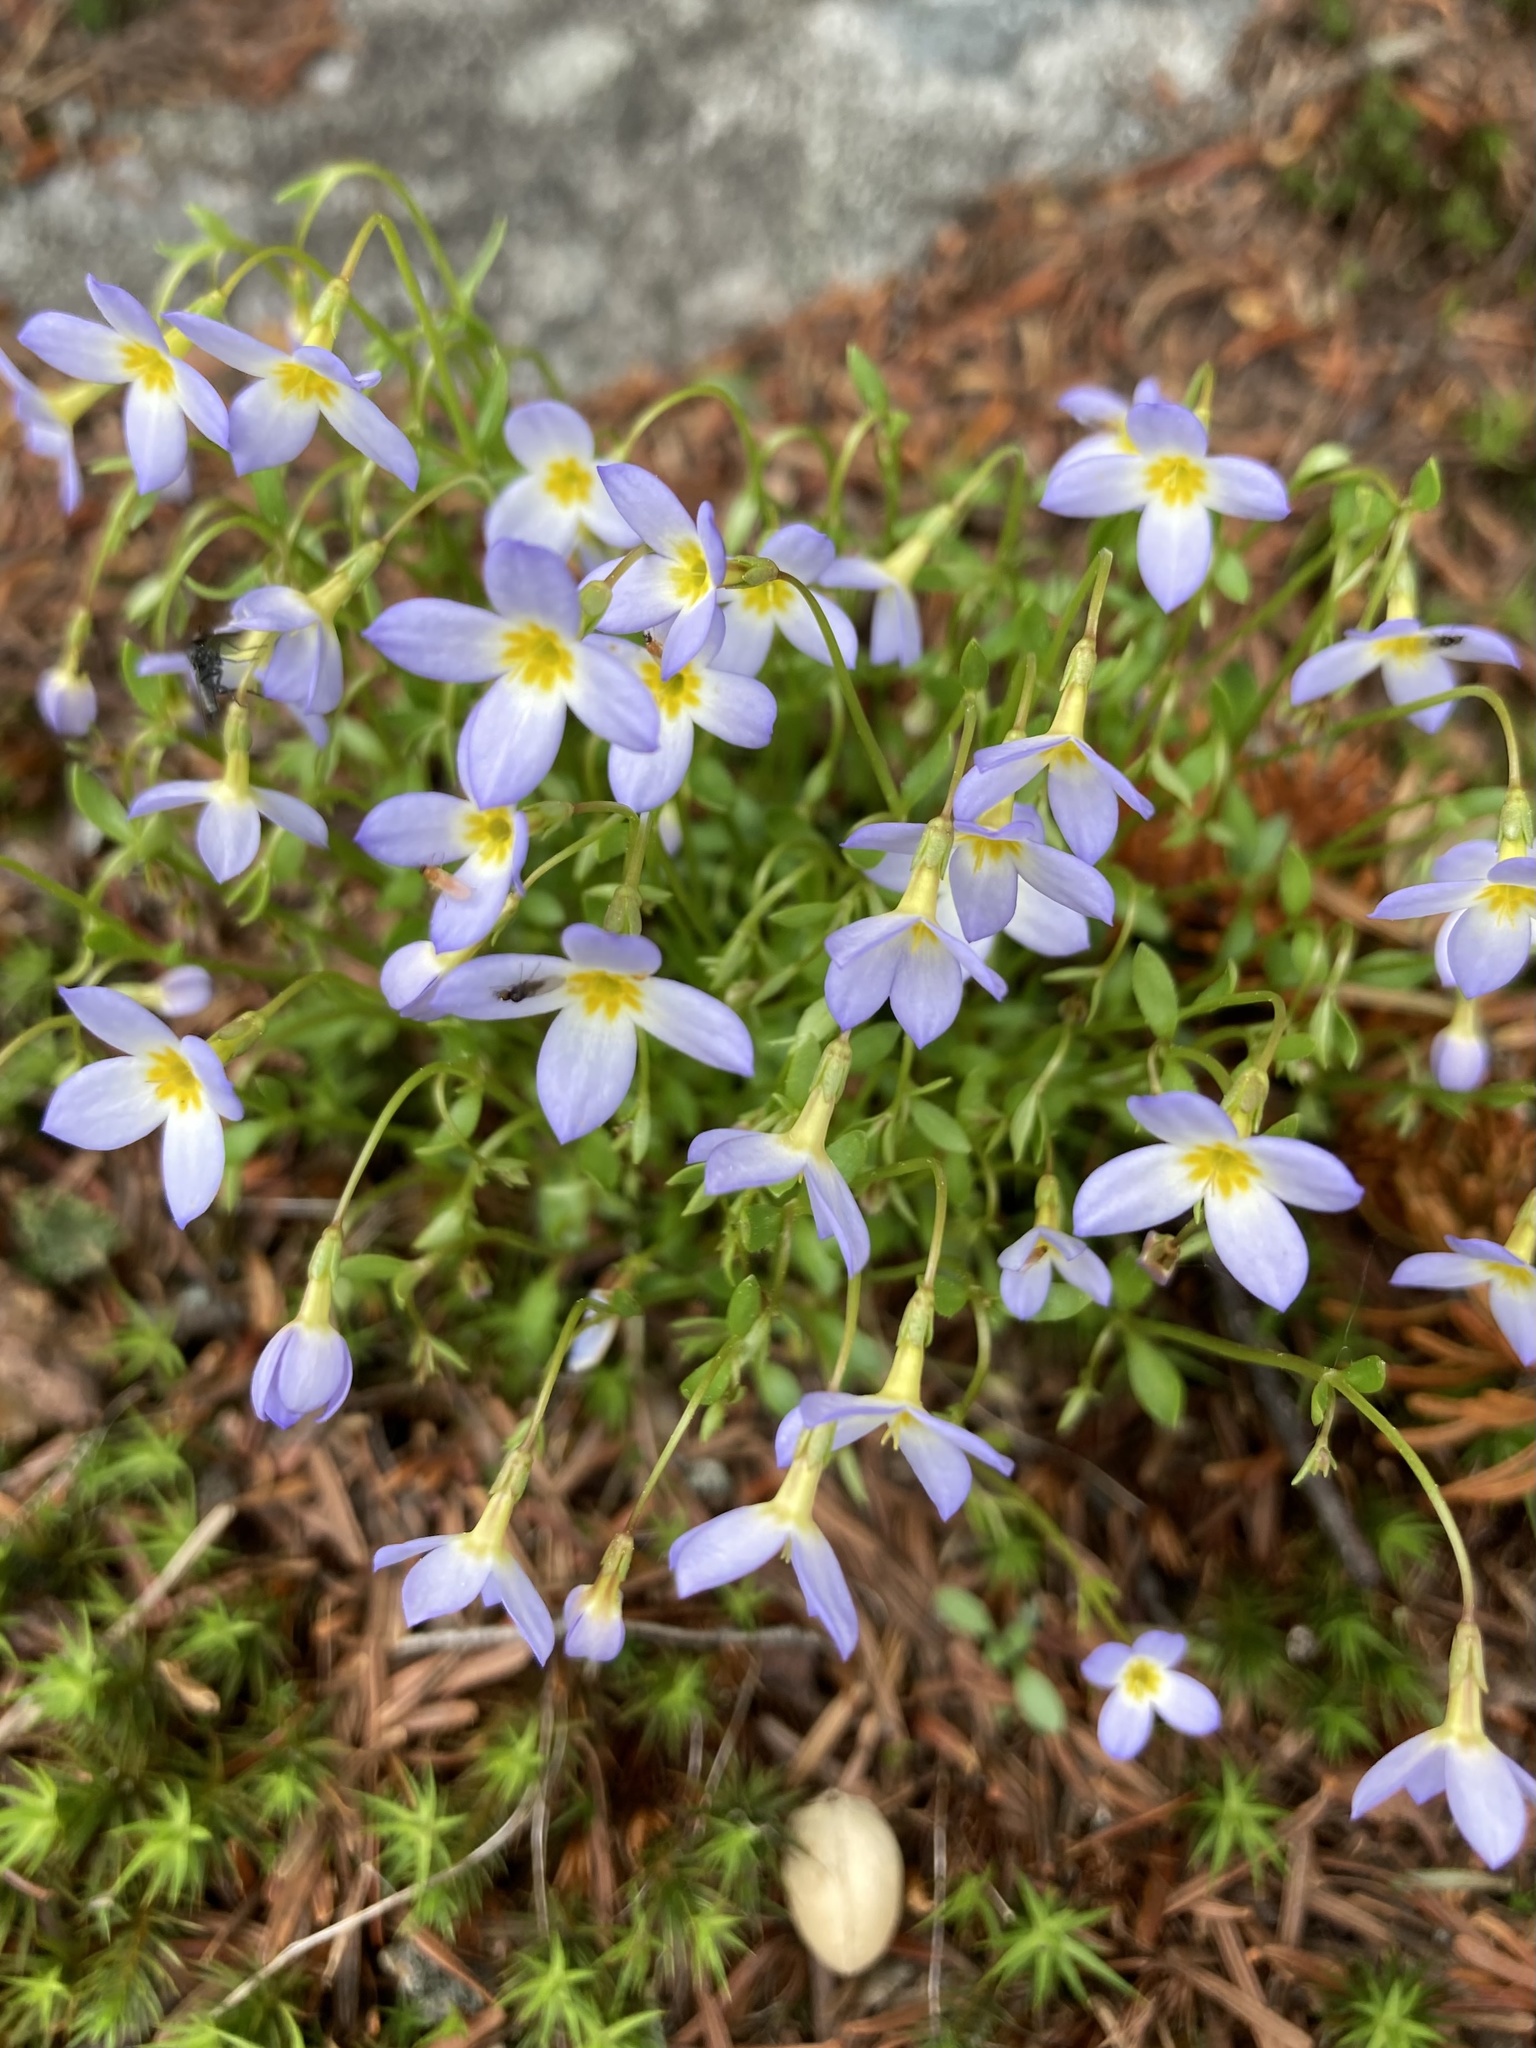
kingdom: Plantae
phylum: Tracheophyta
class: Magnoliopsida
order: Gentianales
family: Rubiaceae
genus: Houstonia
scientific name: Houstonia caerulea
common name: Bluets
